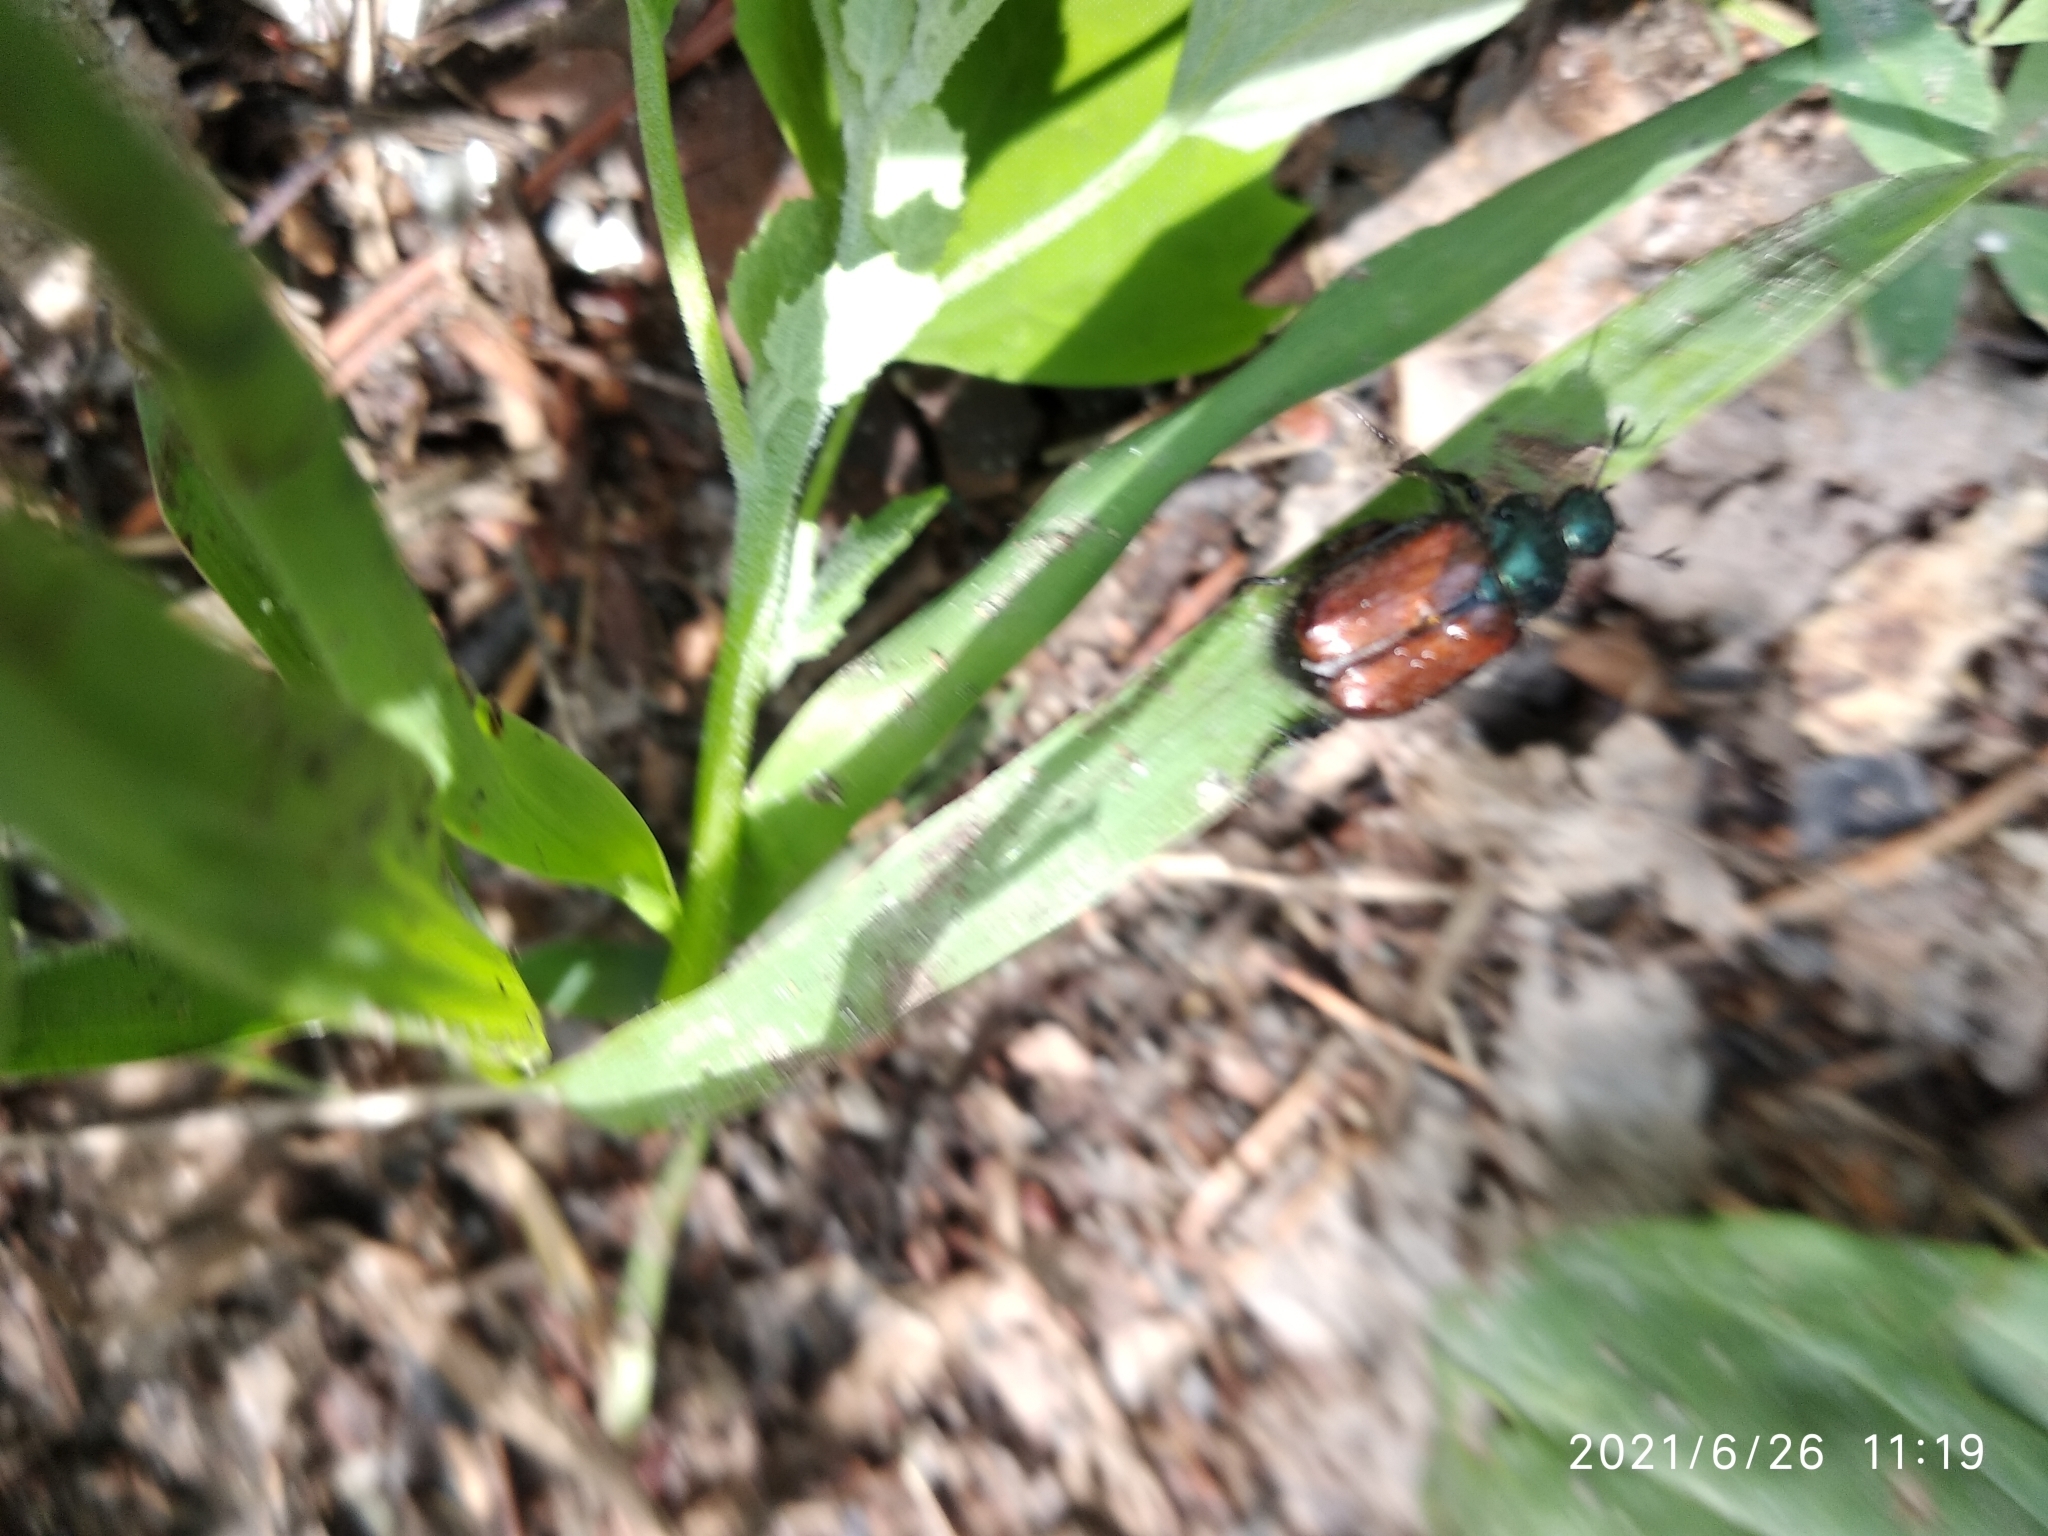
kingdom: Animalia
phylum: Arthropoda
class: Insecta
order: Coleoptera
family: Scarabaeidae
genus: Phyllopertha
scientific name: Phyllopertha horticola
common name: Garden chafer
